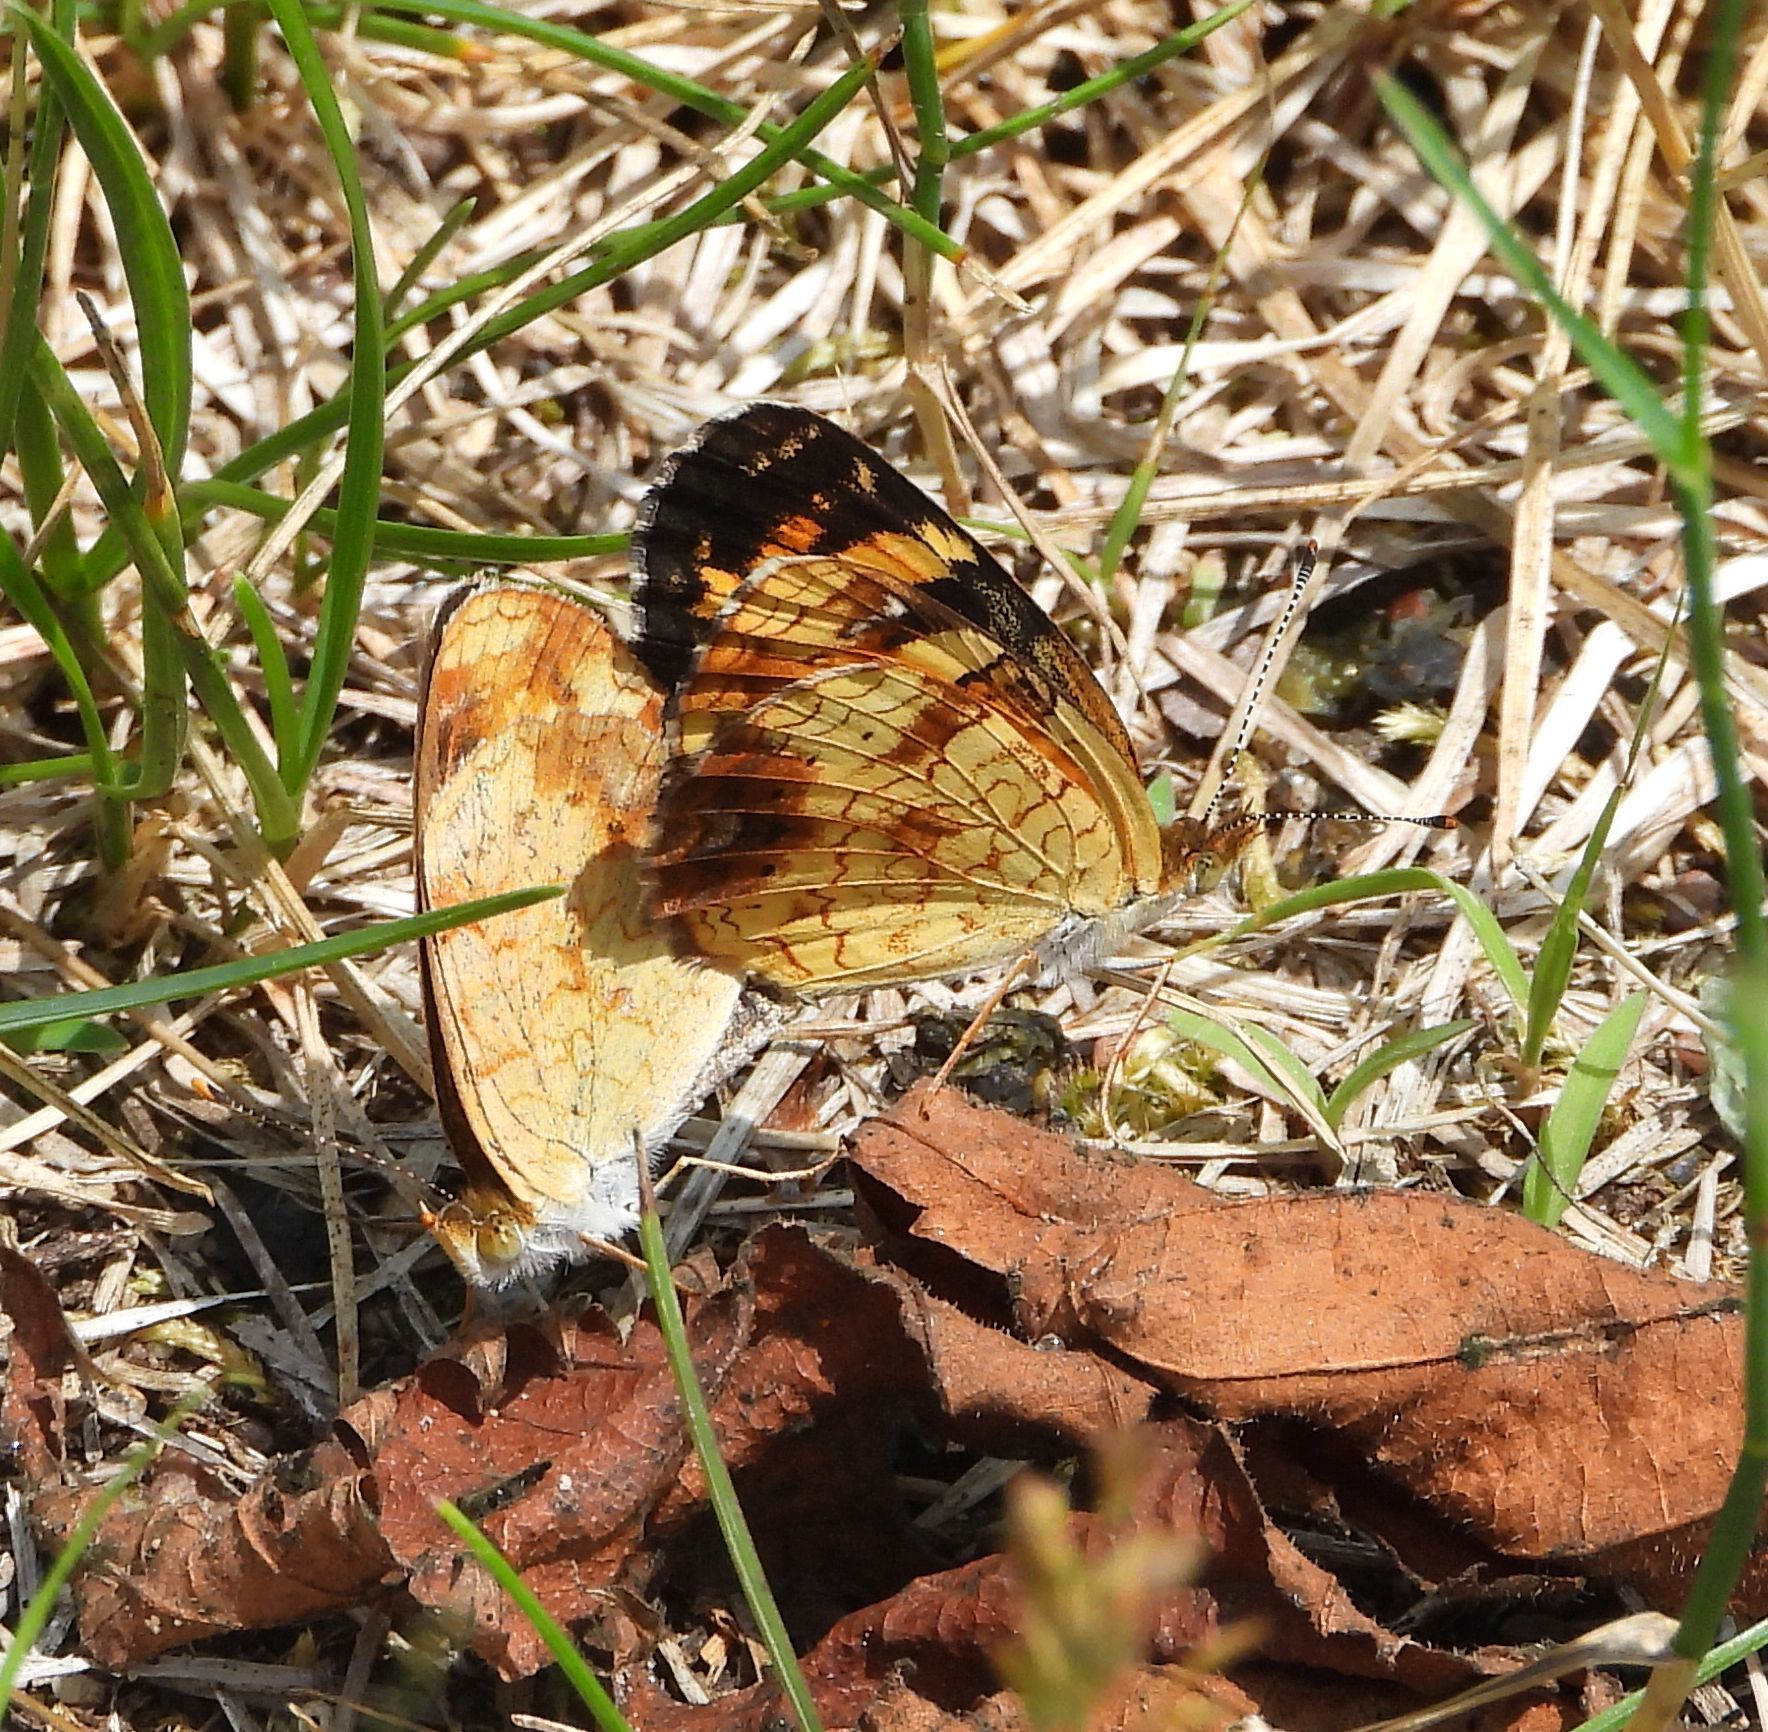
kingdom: Animalia
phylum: Arthropoda
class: Insecta
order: Lepidoptera
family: Nymphalidae
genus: Phyciodes
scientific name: Phyciodes tharos
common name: Pearl crescent
